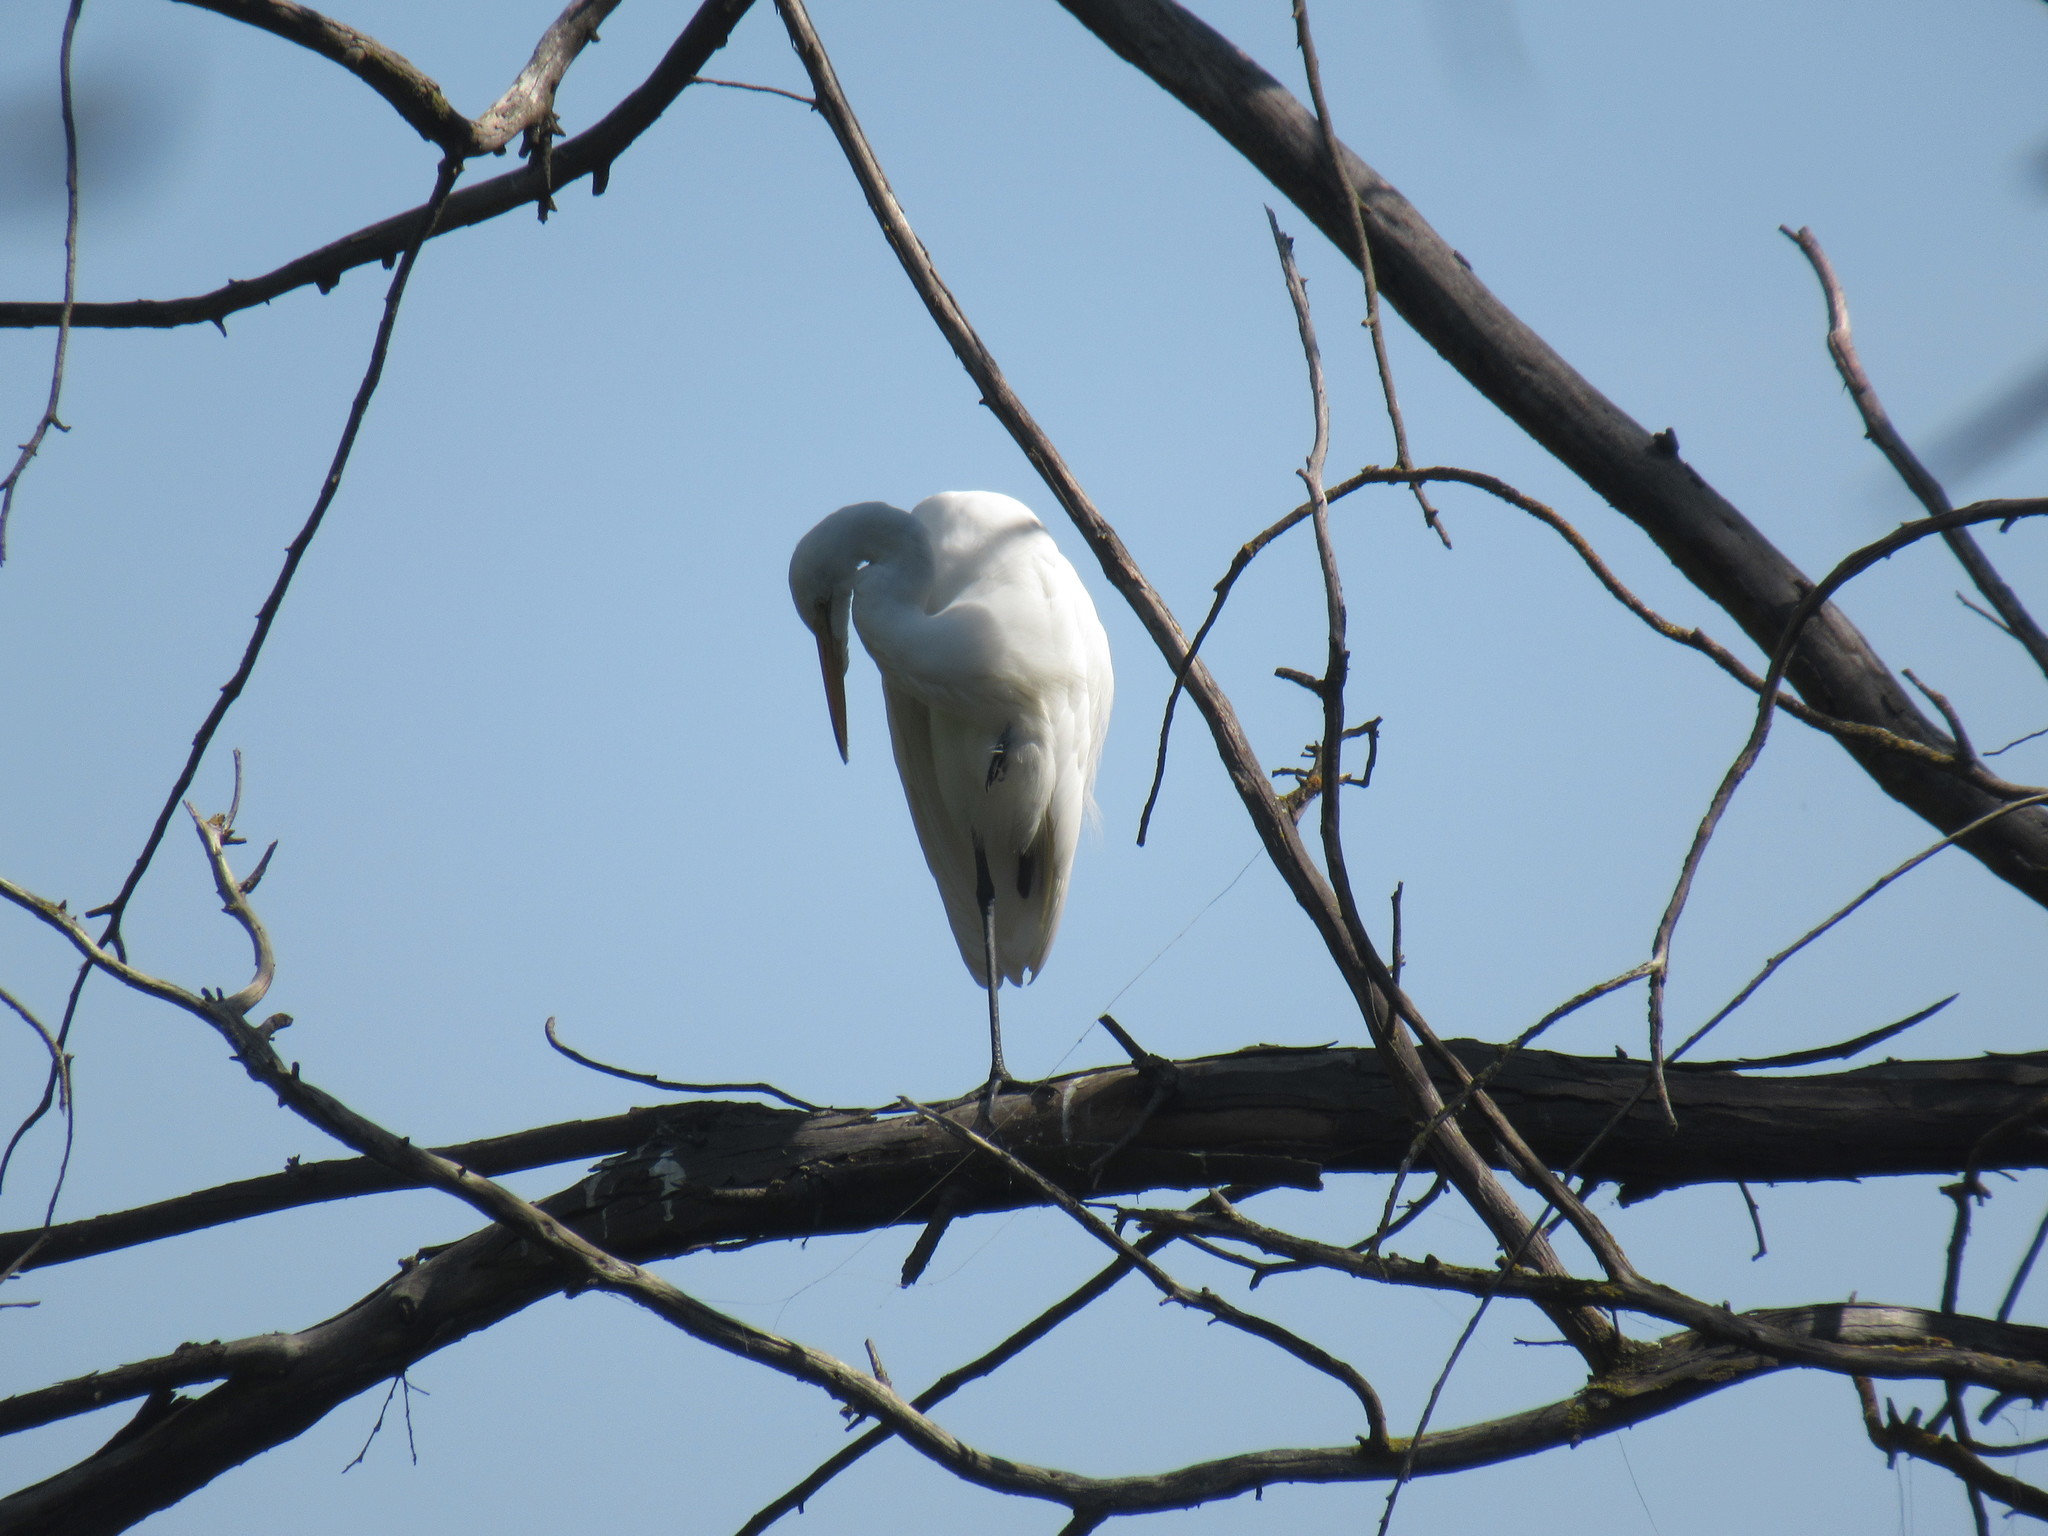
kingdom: Animalia
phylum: Chordata
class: Aves
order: Pelecaniformes
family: Ardeidae
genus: Ardea
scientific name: Ardea alba
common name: Great egret
